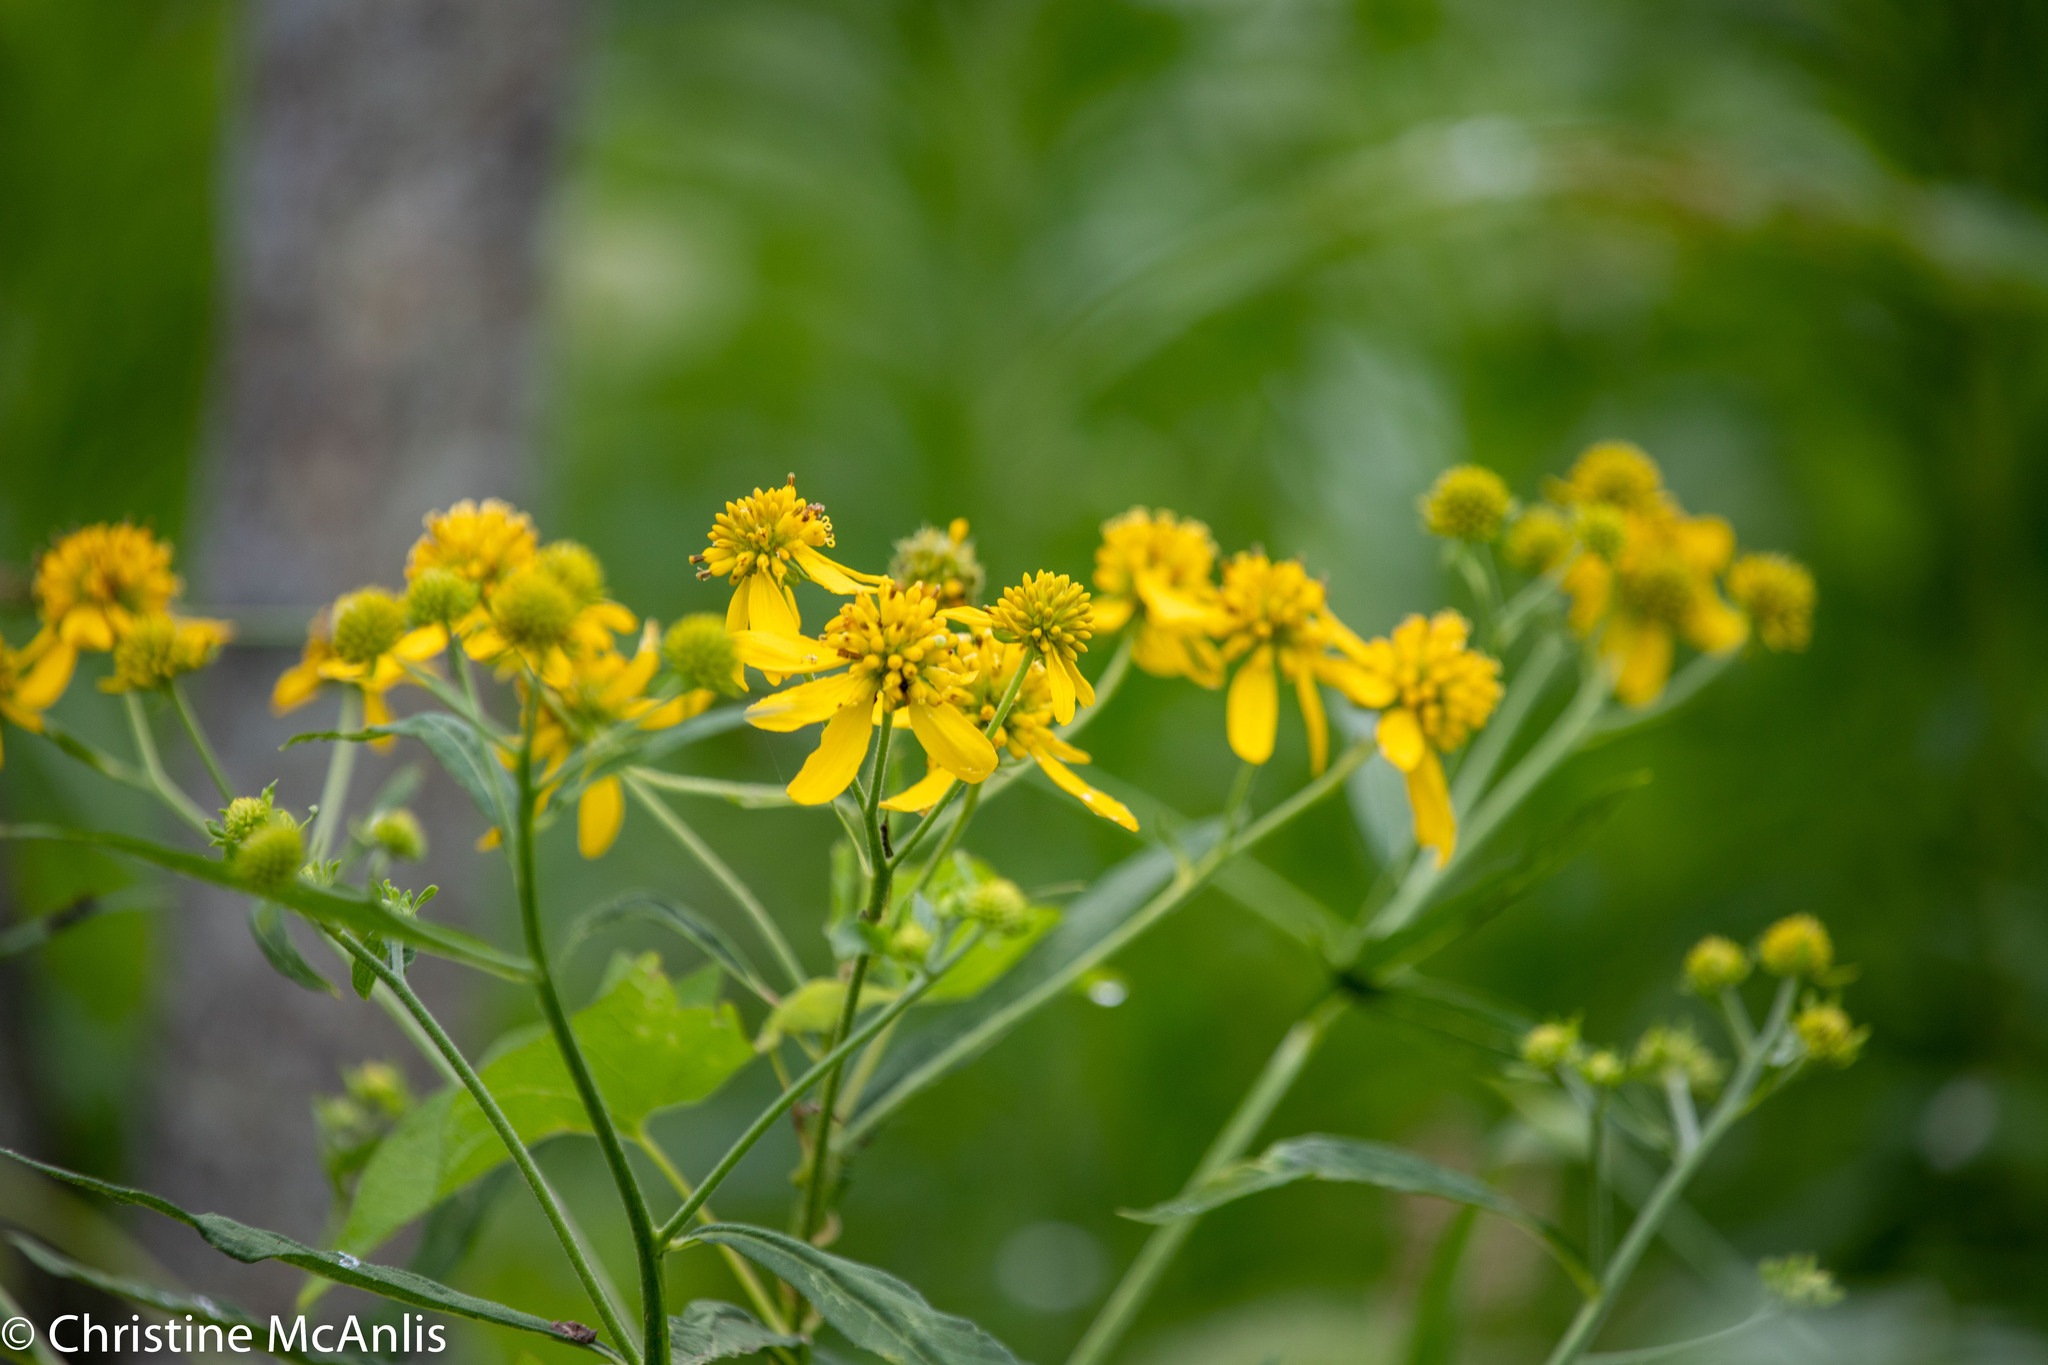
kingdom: Plantae
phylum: Tracheophyta
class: Magnoliopsida
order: Asterales
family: Asteraceae
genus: Verbesina
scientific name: Verbesina alternifolia
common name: Wingstem
